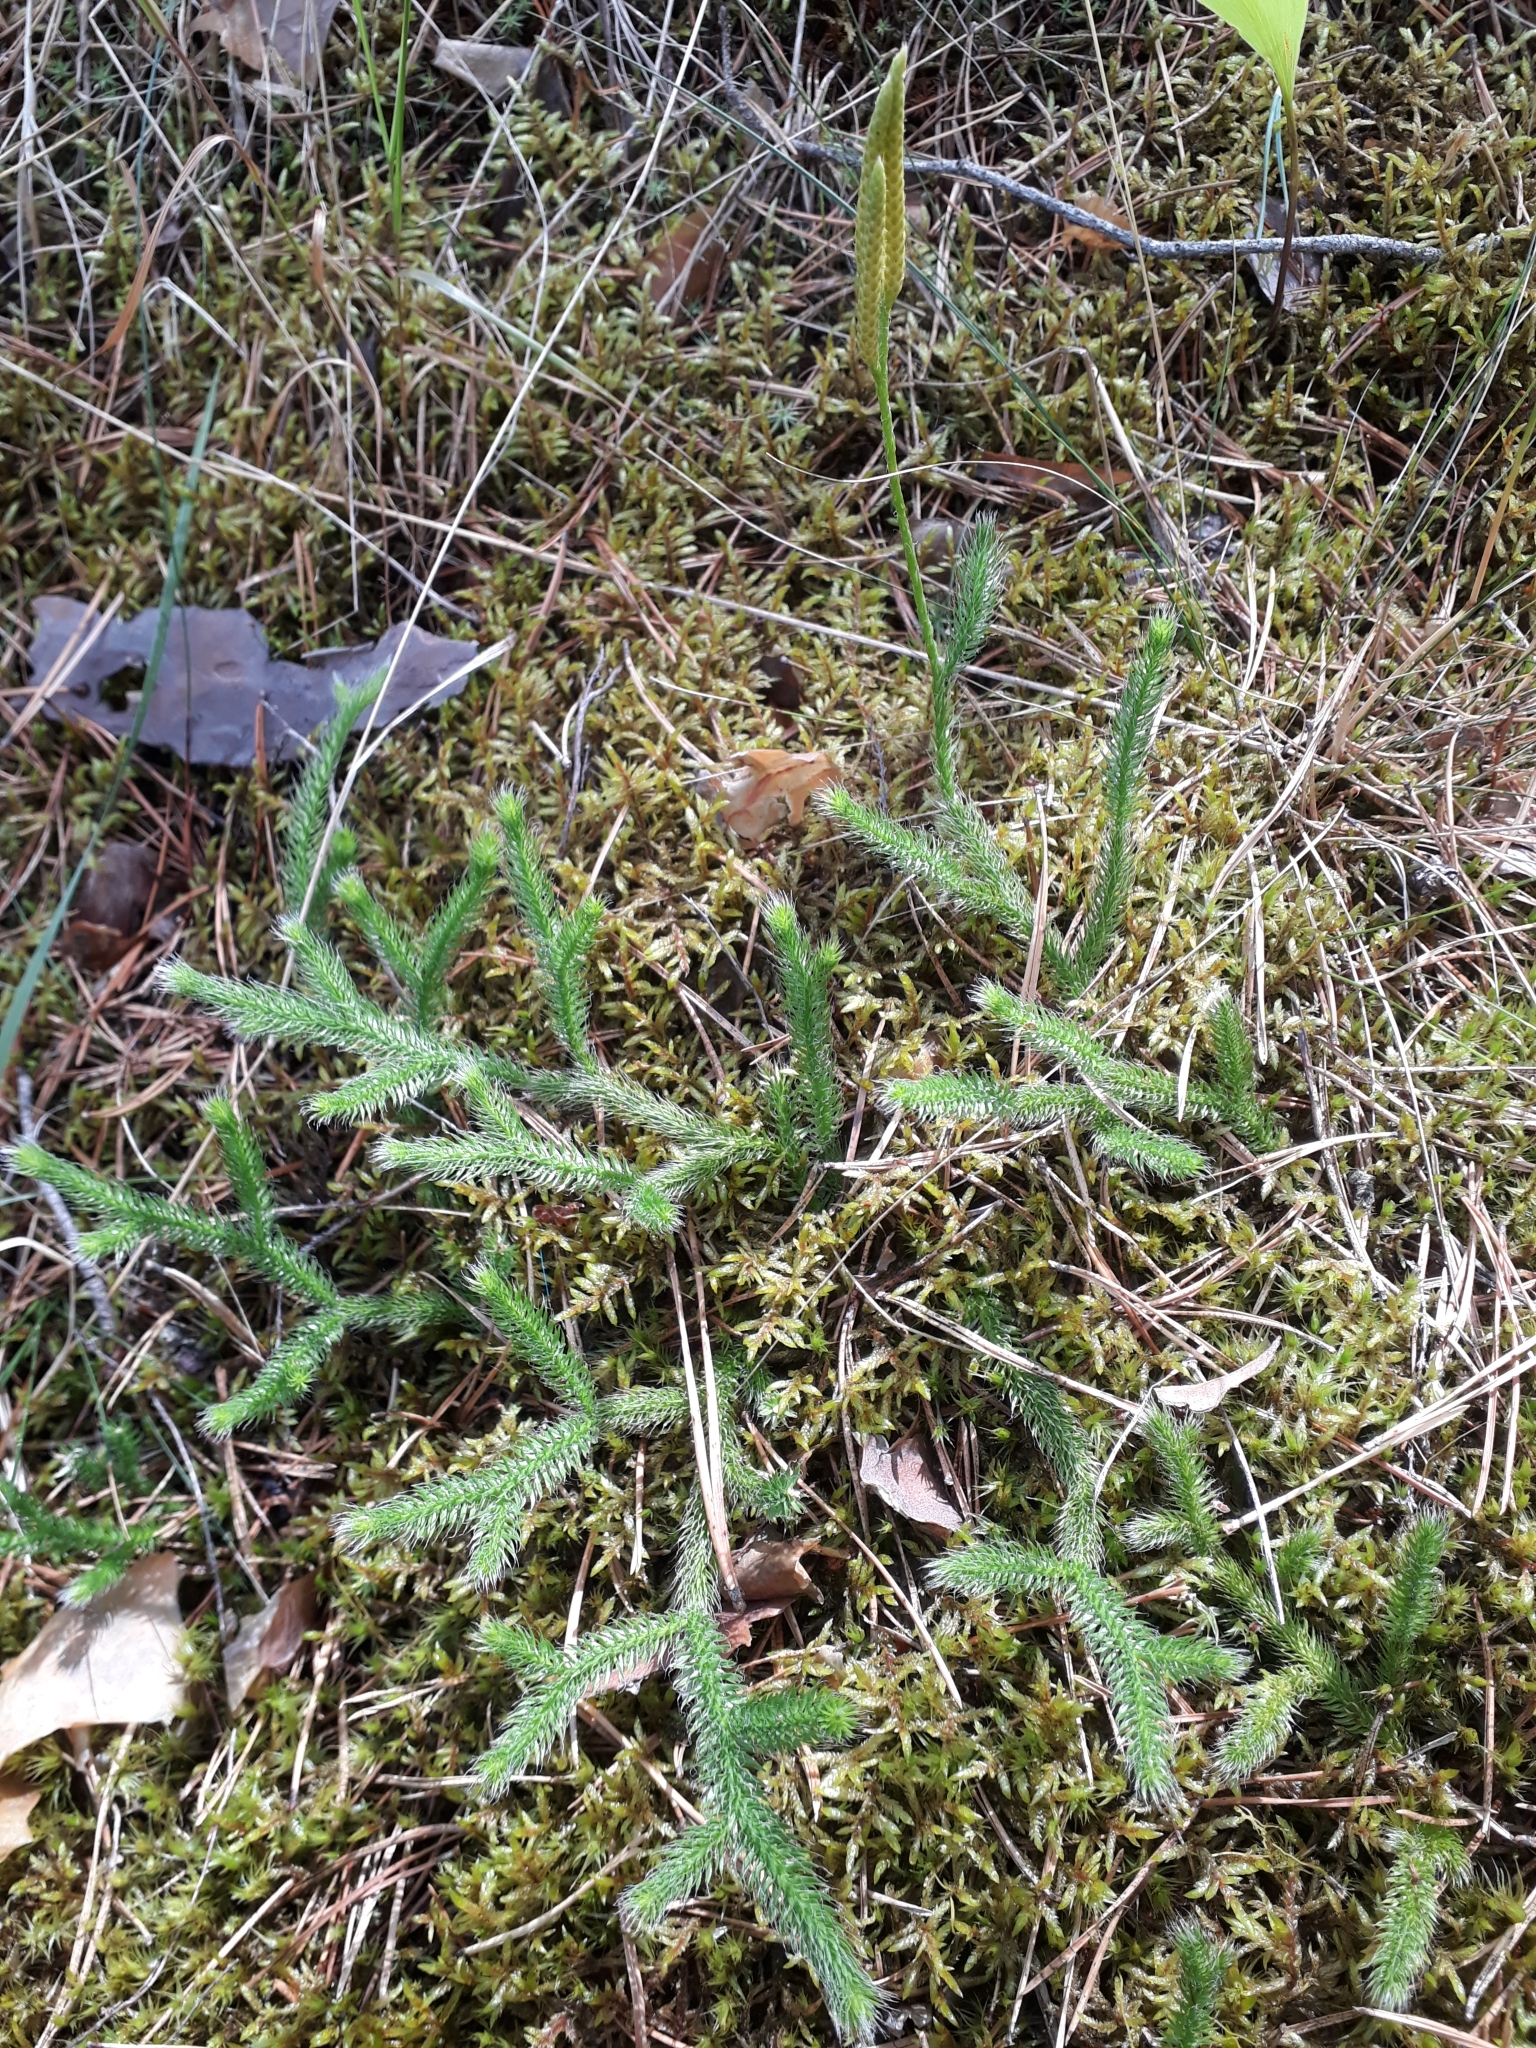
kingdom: Plantae
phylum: Tracheophyta
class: Lycopodiopsida
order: Lycopodiales
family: Lycopodiaceae
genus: Lycopodium
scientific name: Lycopodium clavatum
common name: Stag's-horn clubmoss
